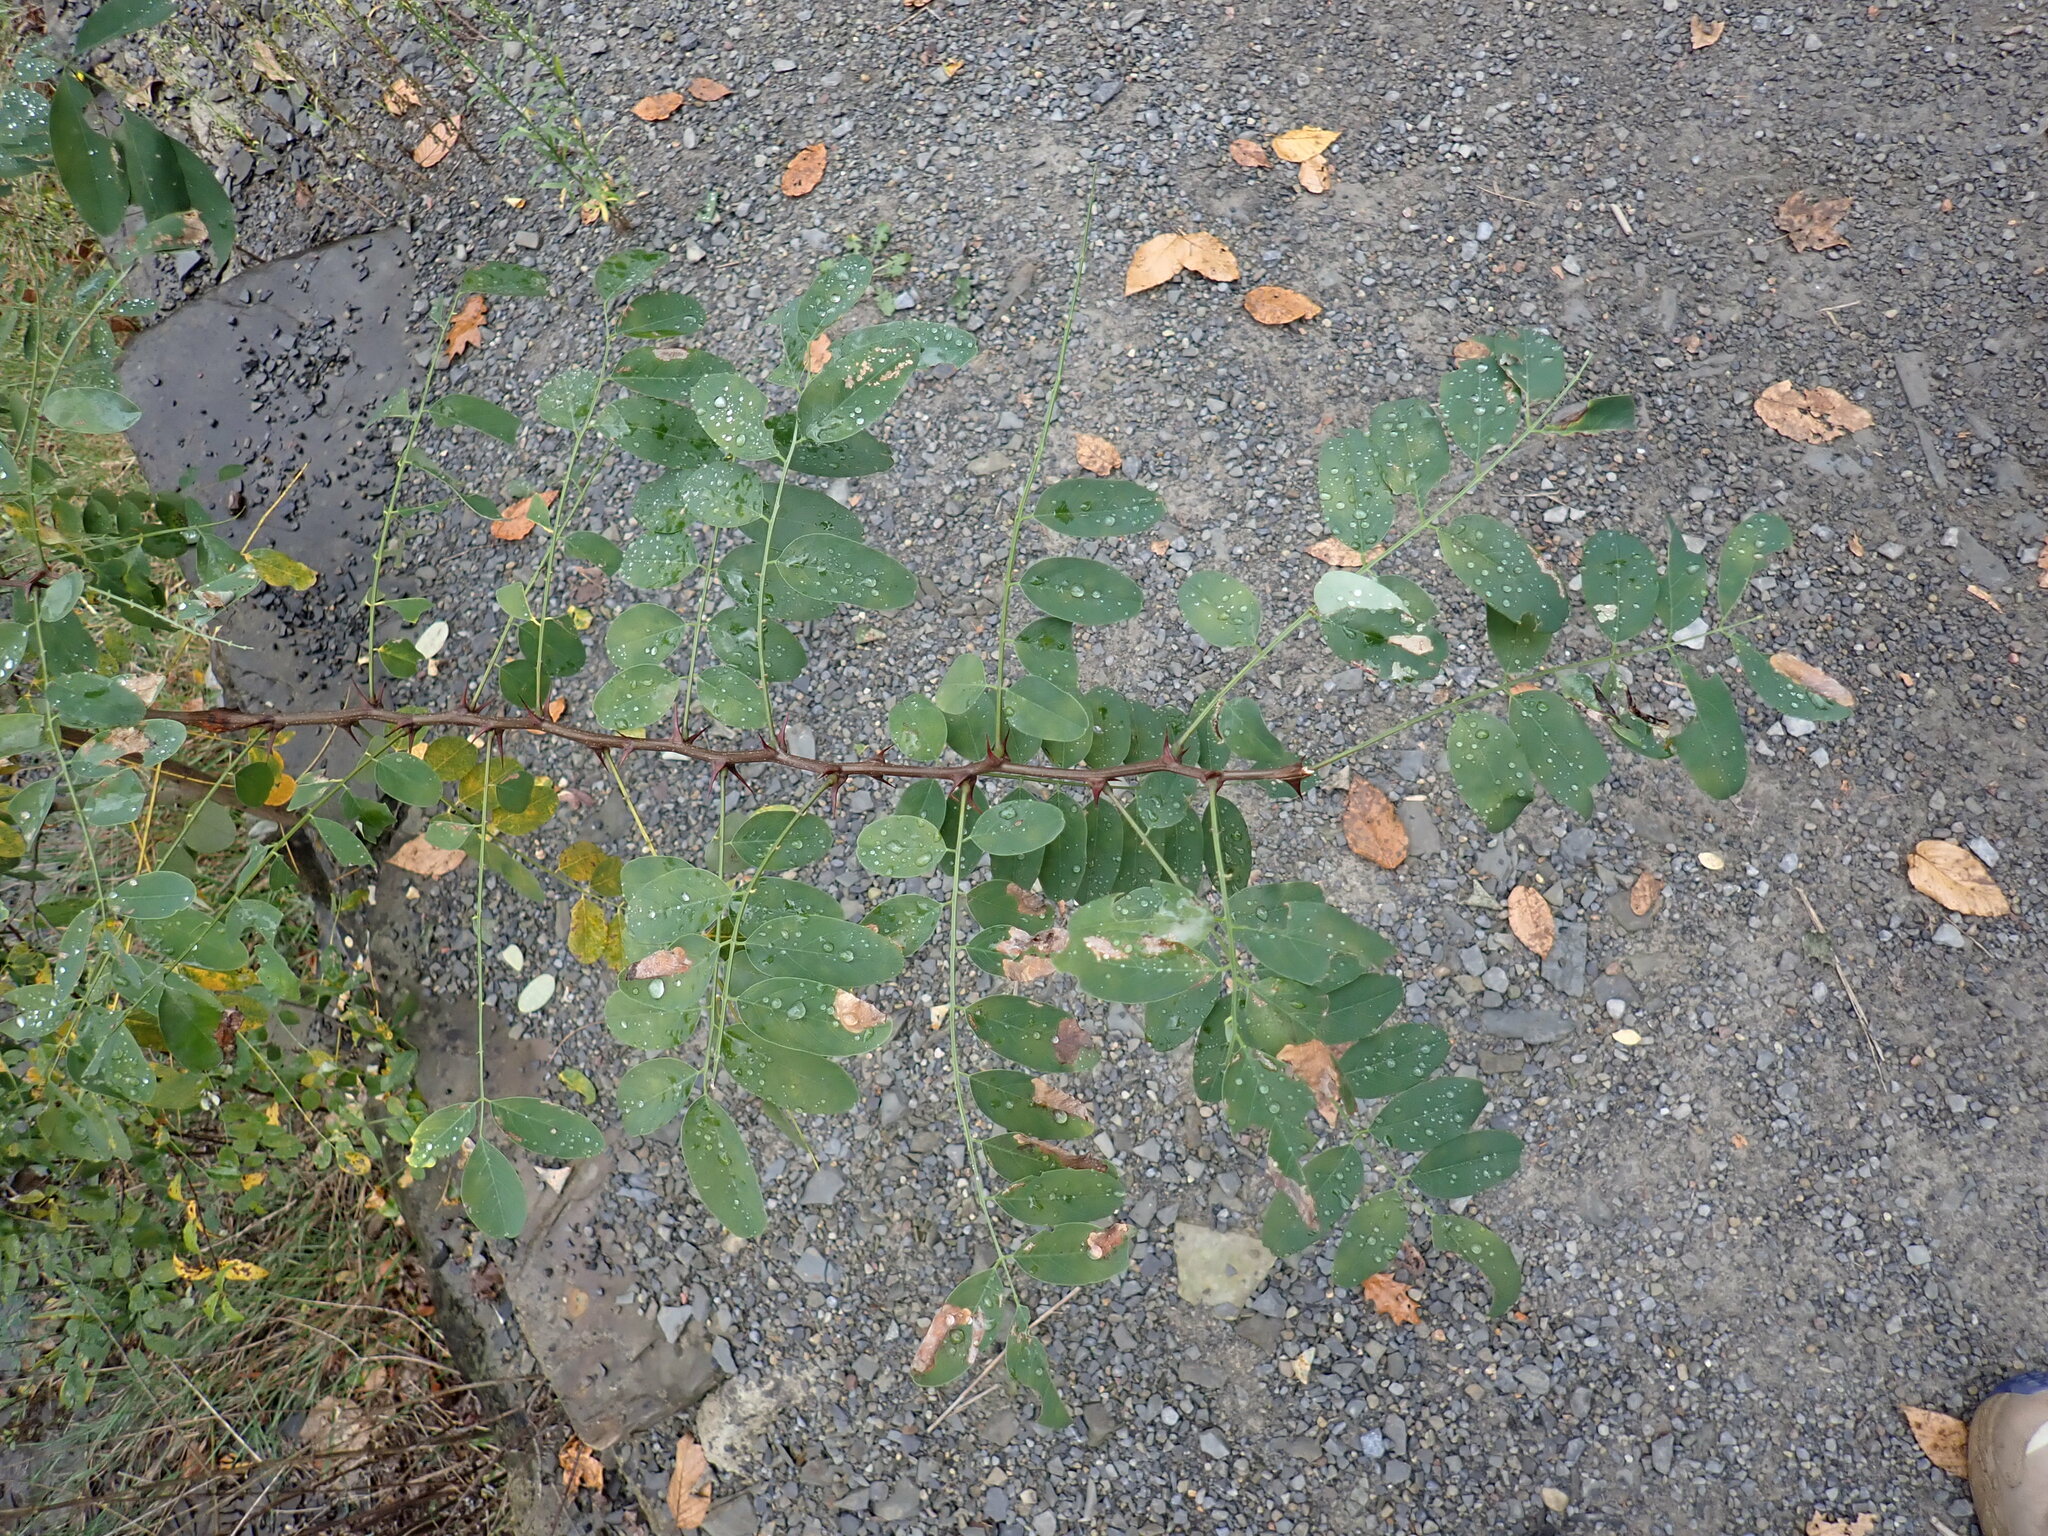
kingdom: Plantae
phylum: Tracheophyta
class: Magnoliopsida
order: Fabales
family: Fabaceae
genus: Robinia
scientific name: Robinia pseudoacacia
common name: Black locust
